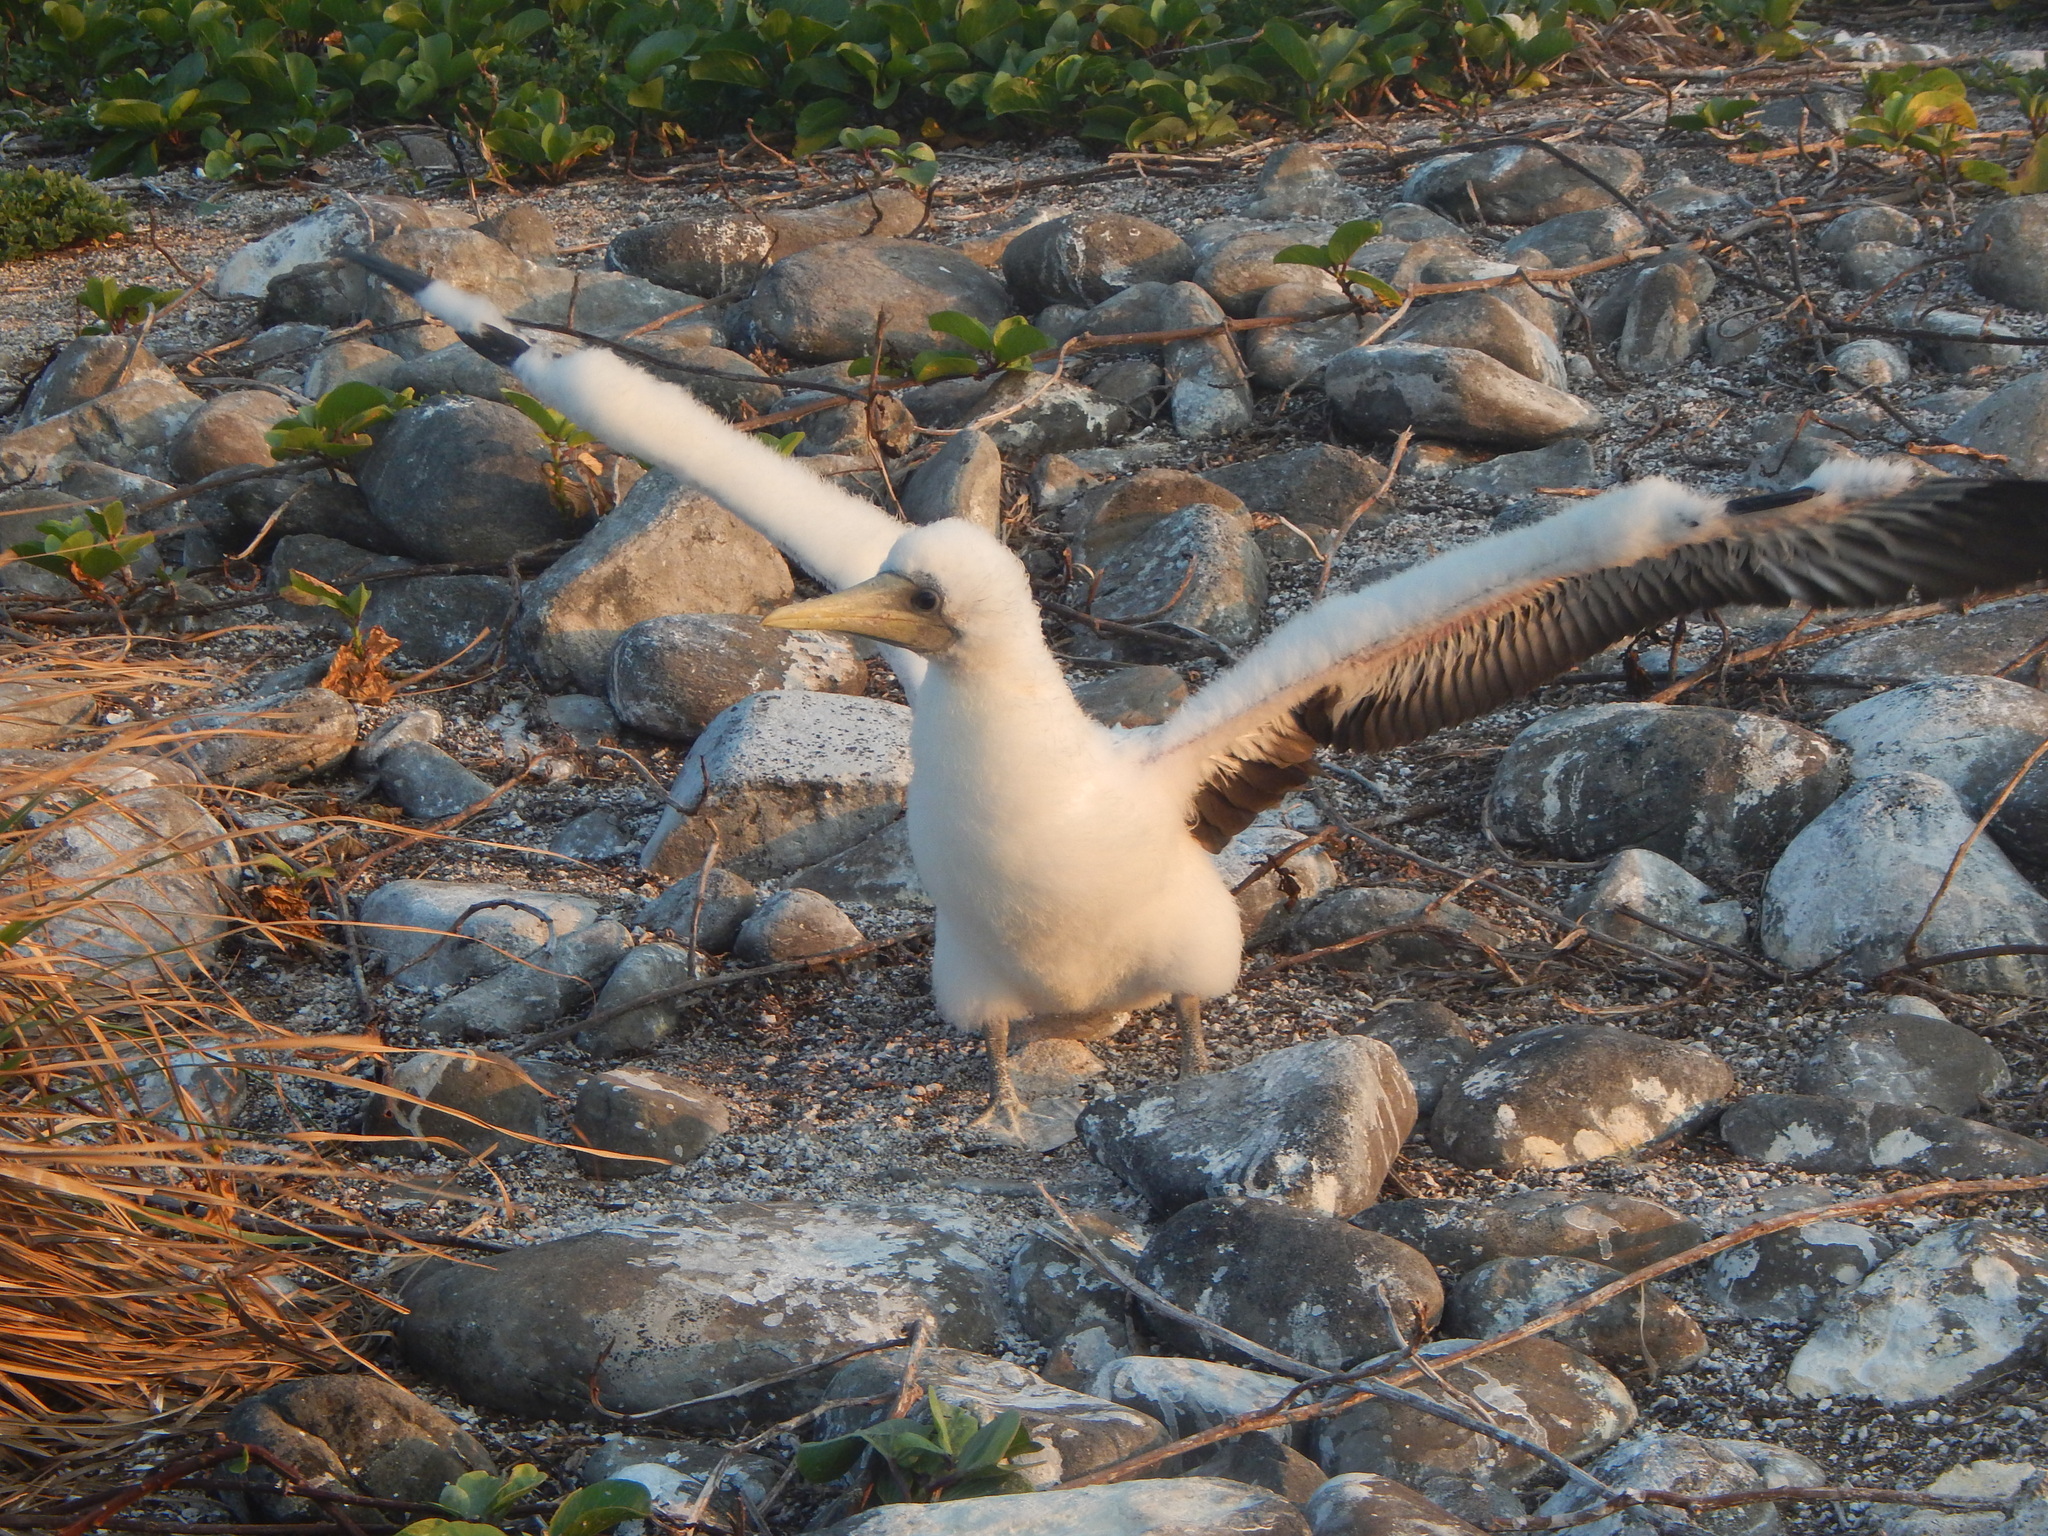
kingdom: Animalia
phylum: Chordata
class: Aves
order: Suliformes
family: Sulidae
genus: Sula
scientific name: Sula dactylatra
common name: Masked booby
